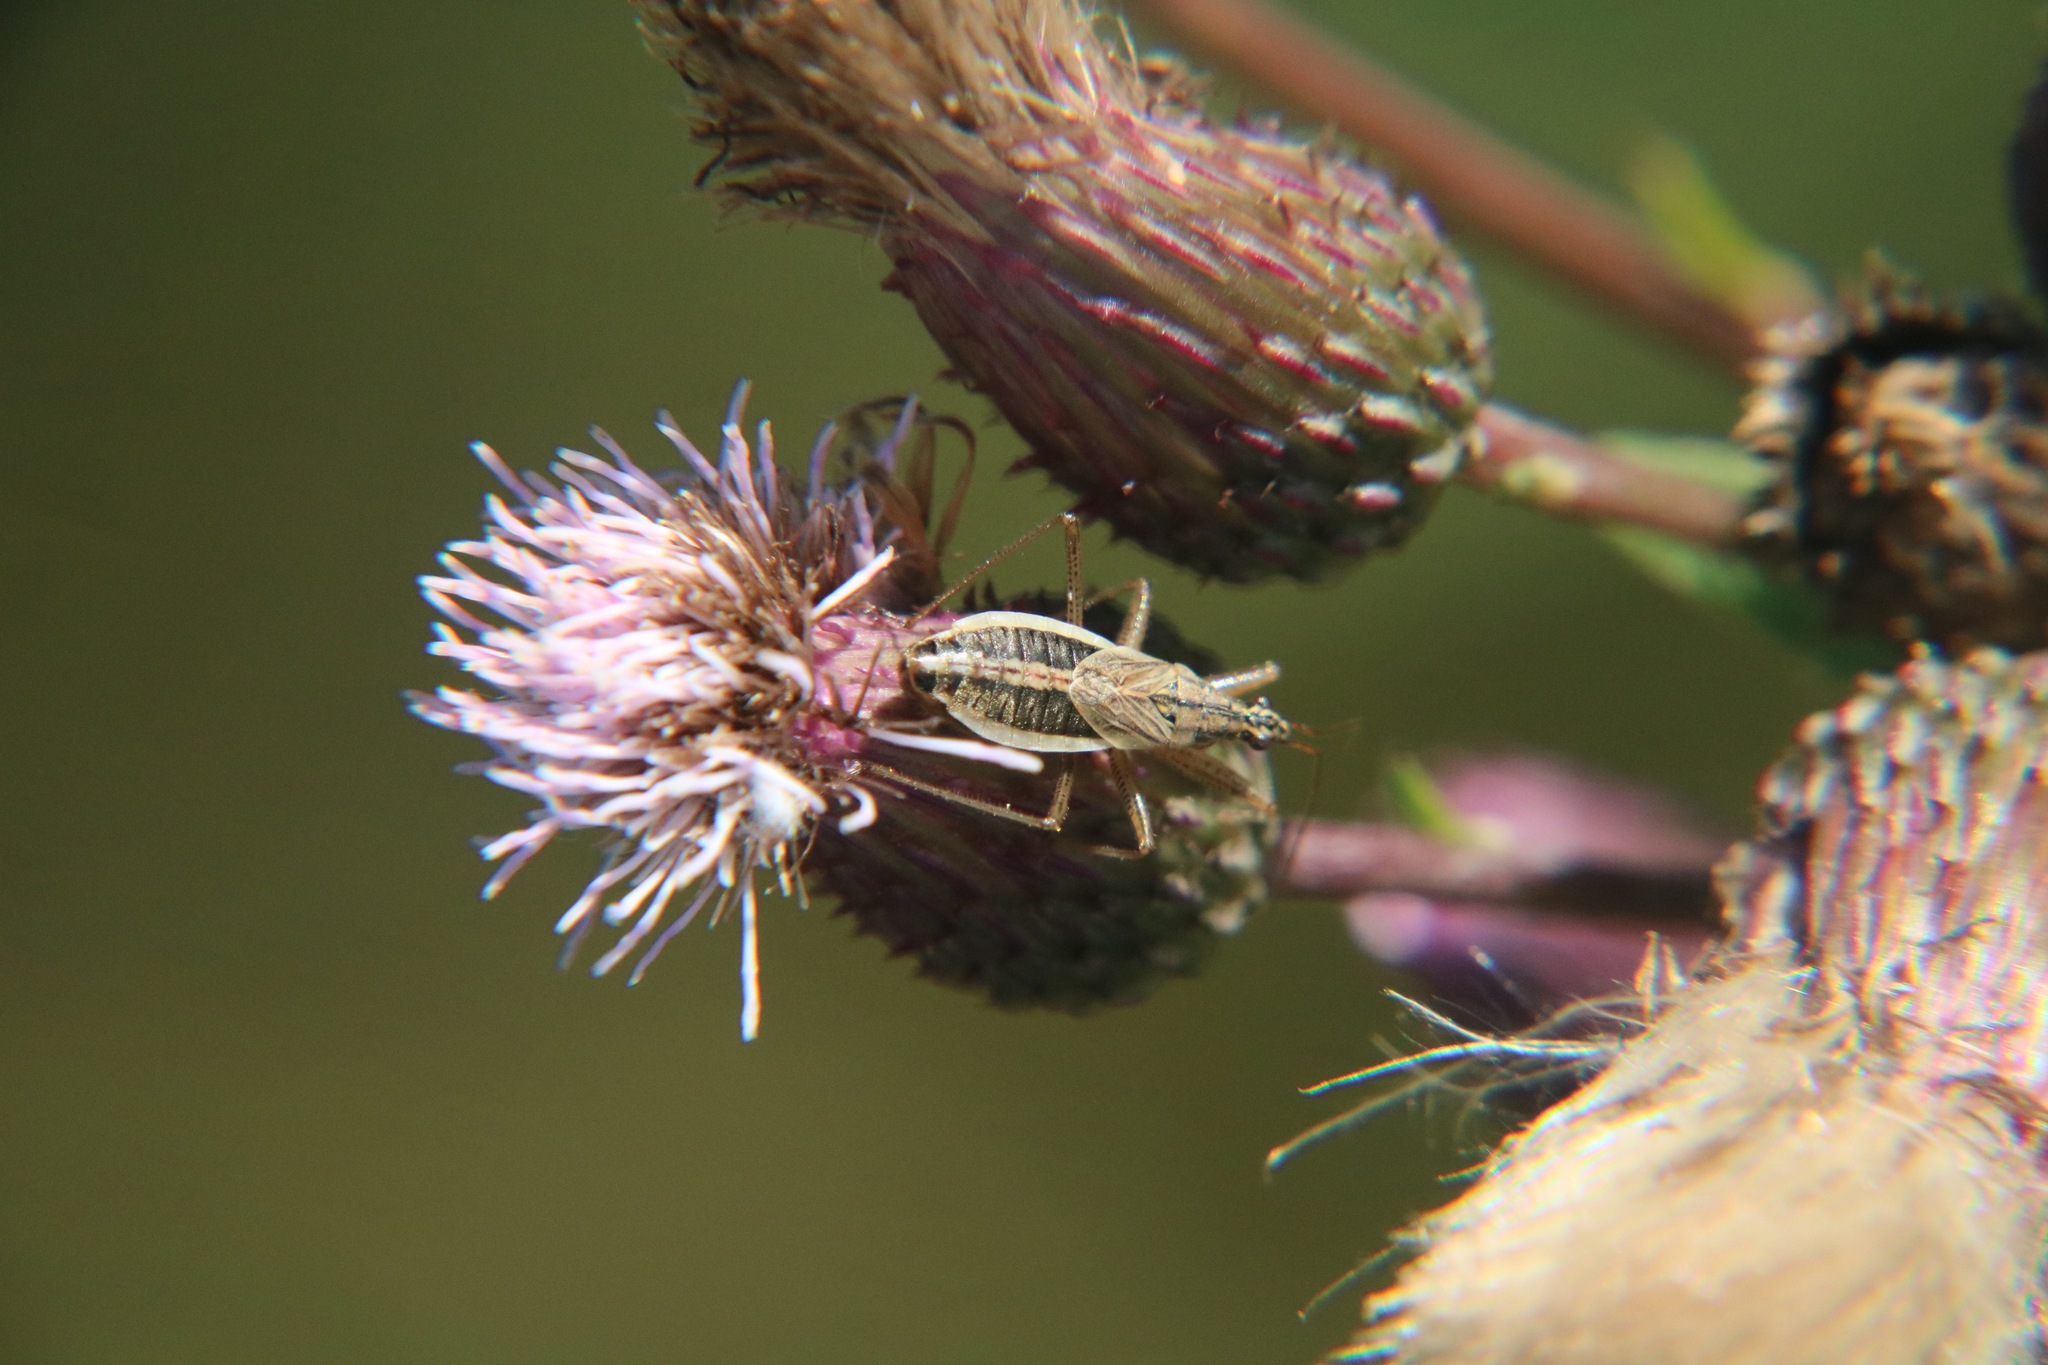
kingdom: Animalia
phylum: Arthropoda
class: Insecta
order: Hemiptera
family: Nabidae
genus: Nabis
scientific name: Nabis flavomarginatus
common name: Broad damselbug
